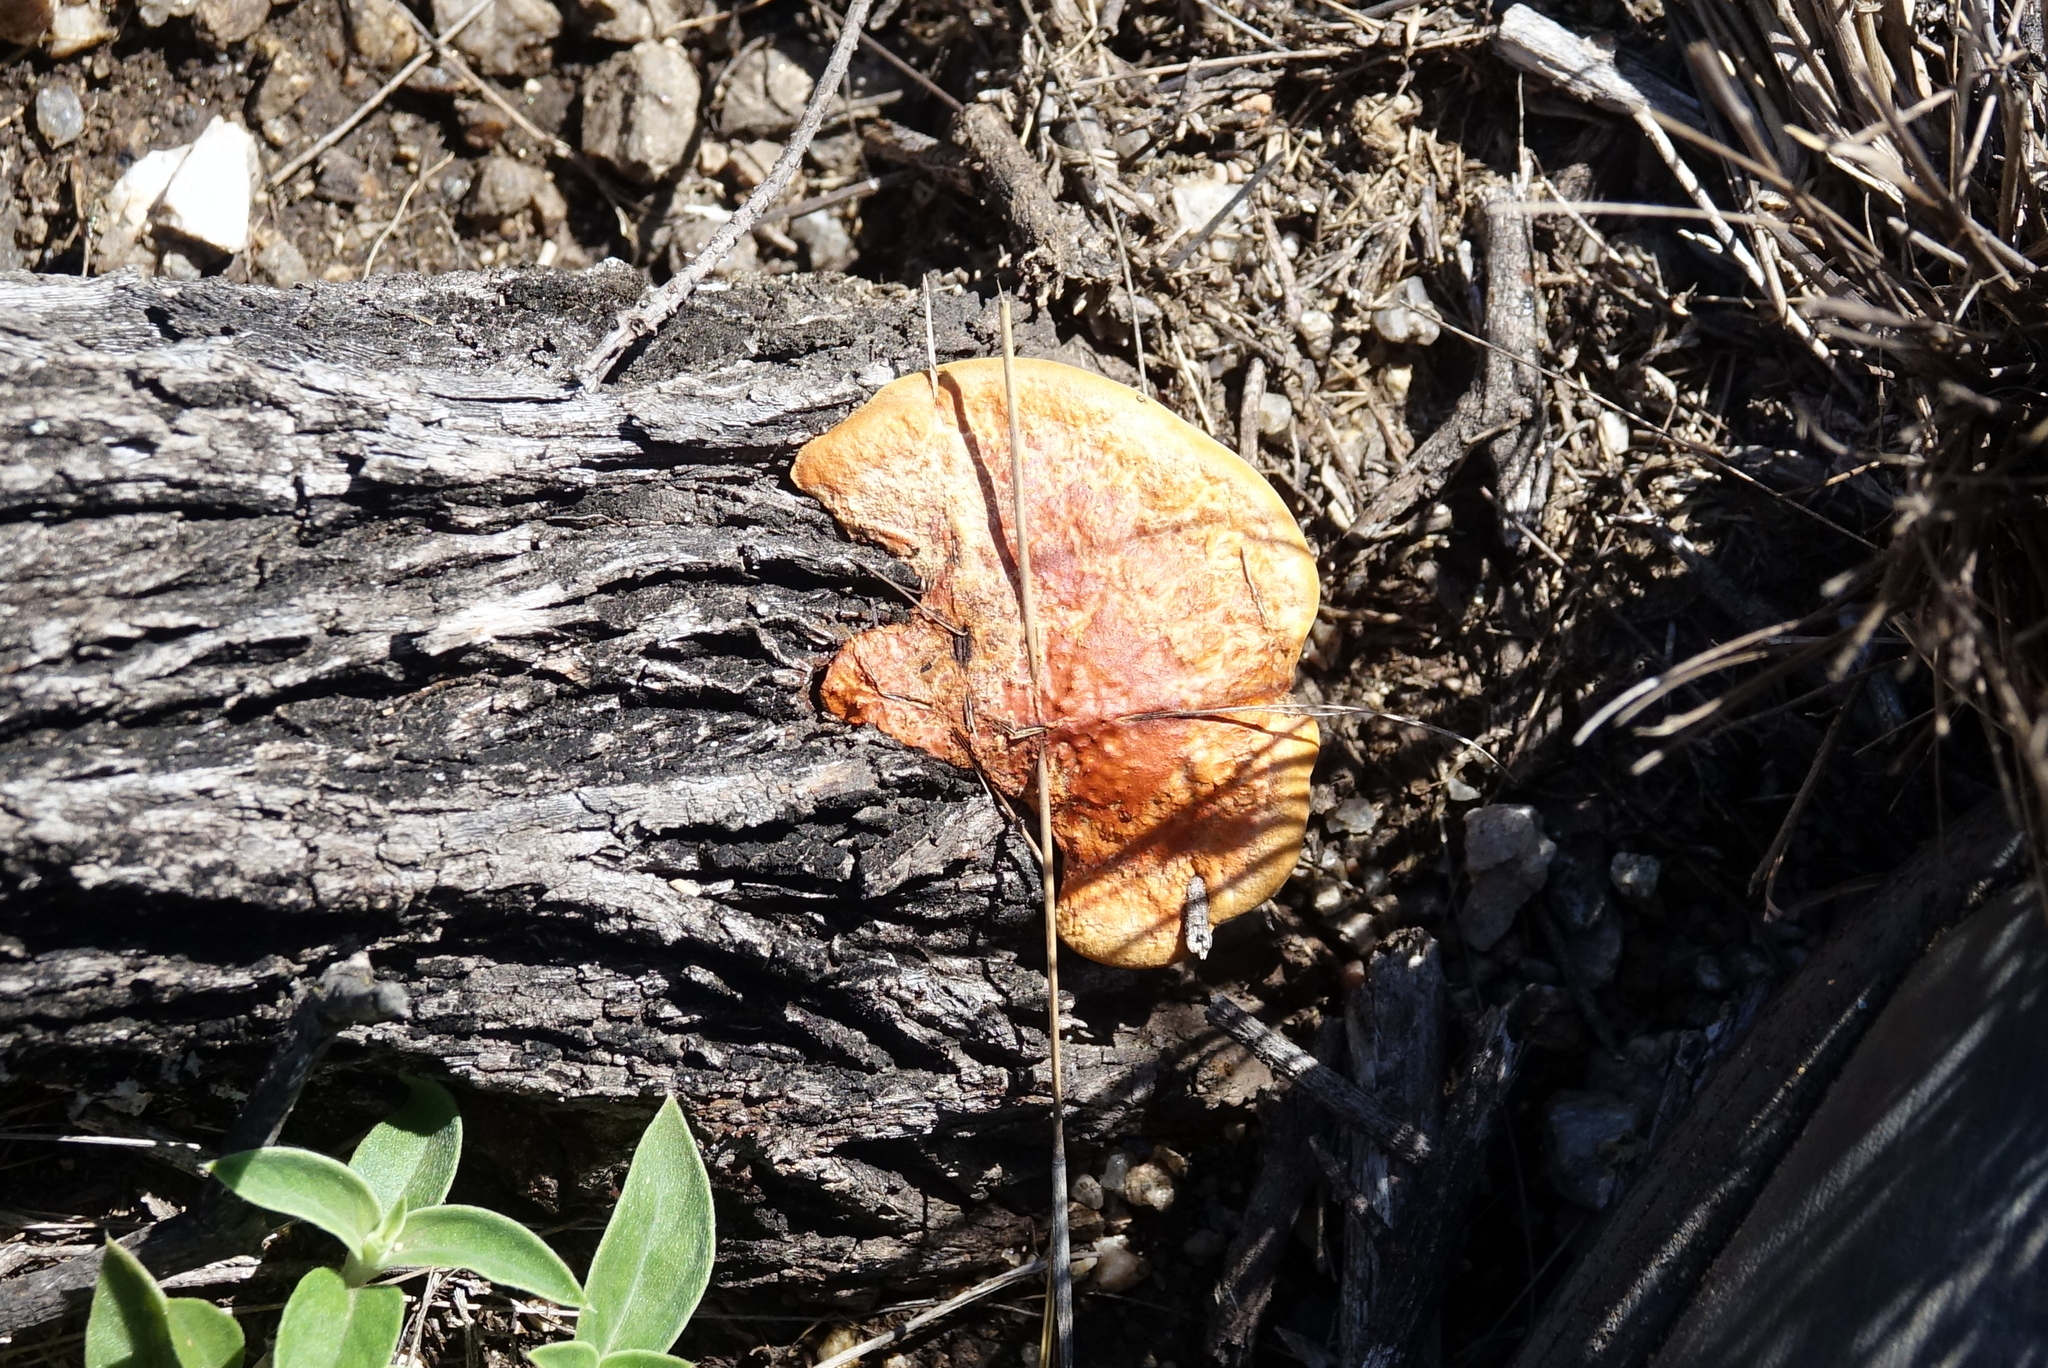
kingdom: Fungi
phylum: Basidiomycota
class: Agaricomycetes
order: Polyporales
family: Polyporaceae
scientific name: Polyporaceae
